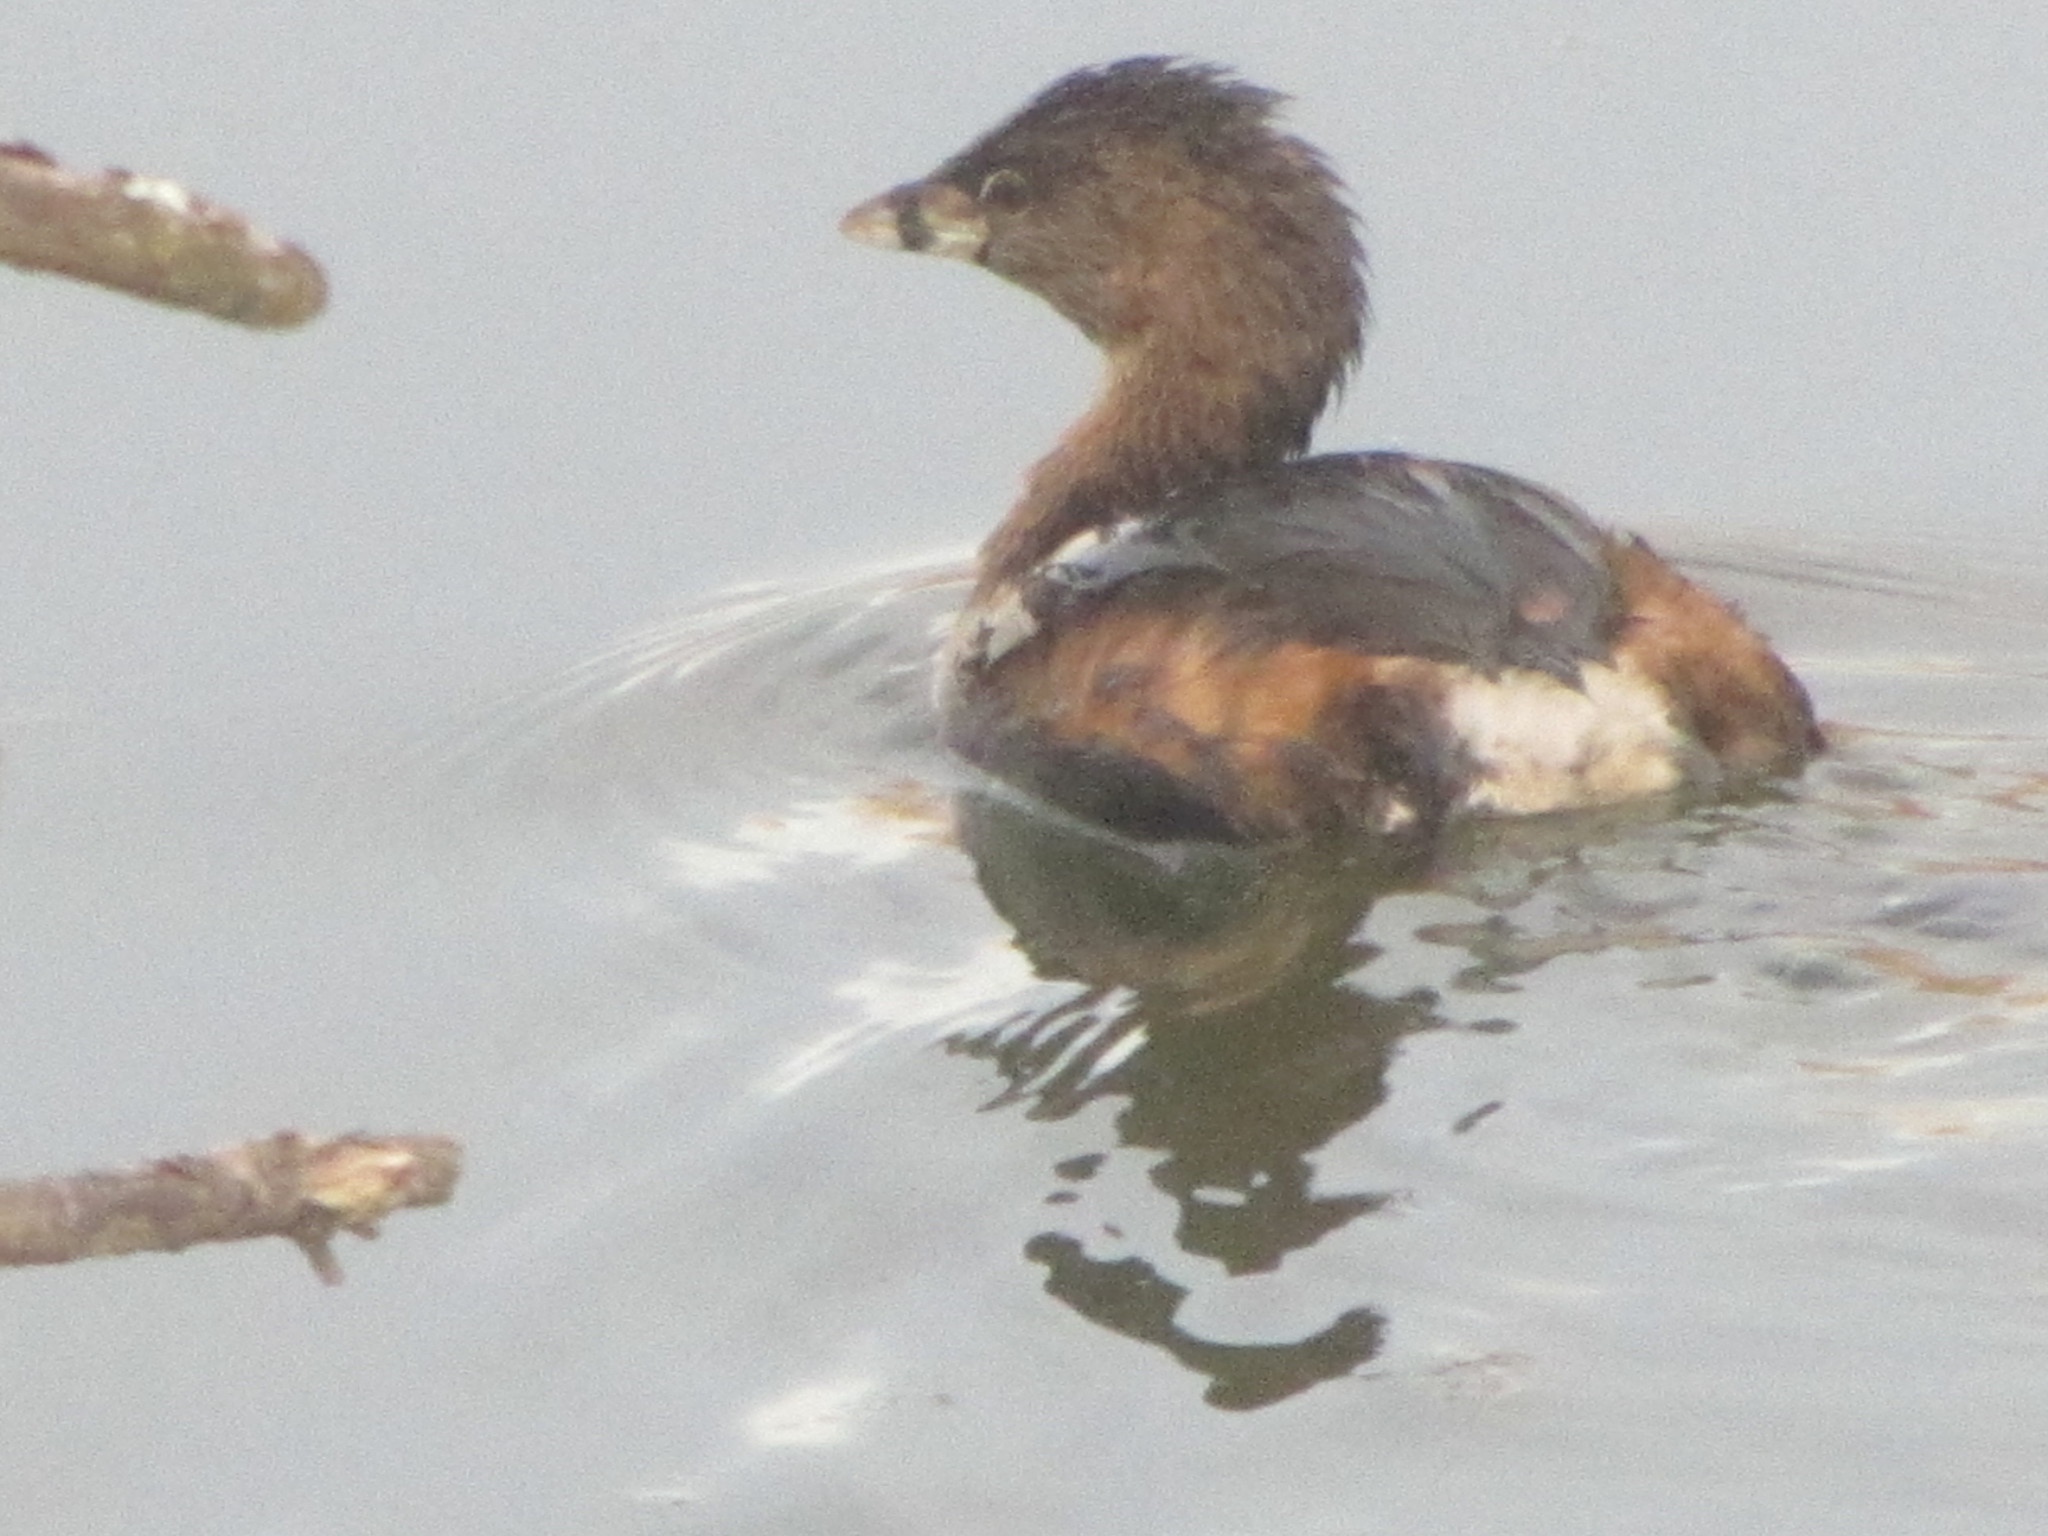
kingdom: Animalia
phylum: Chordata
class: Aves
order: Podicipediformes
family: Podicipedidae
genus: Podilymbus
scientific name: Podilymbus podiceps
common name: Pied-billed grebe
